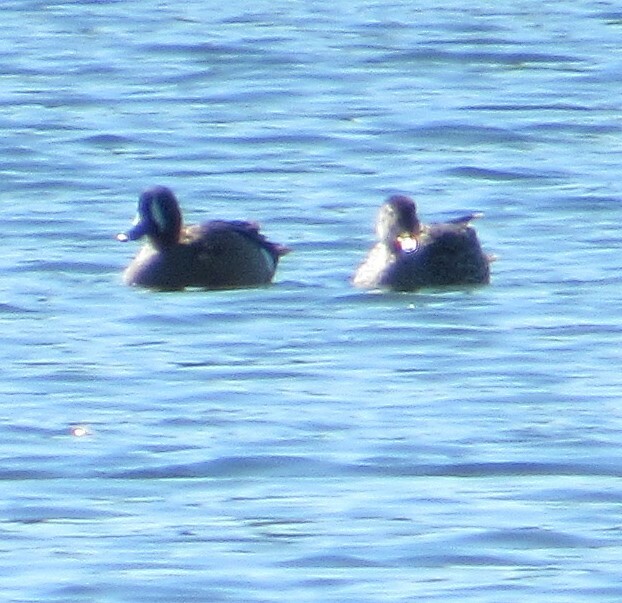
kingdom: Animalia
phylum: Chordata
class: Aves
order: Anseriformes
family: Anatidae
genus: Spatula
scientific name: Spatula discors
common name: Blue-winged teal
